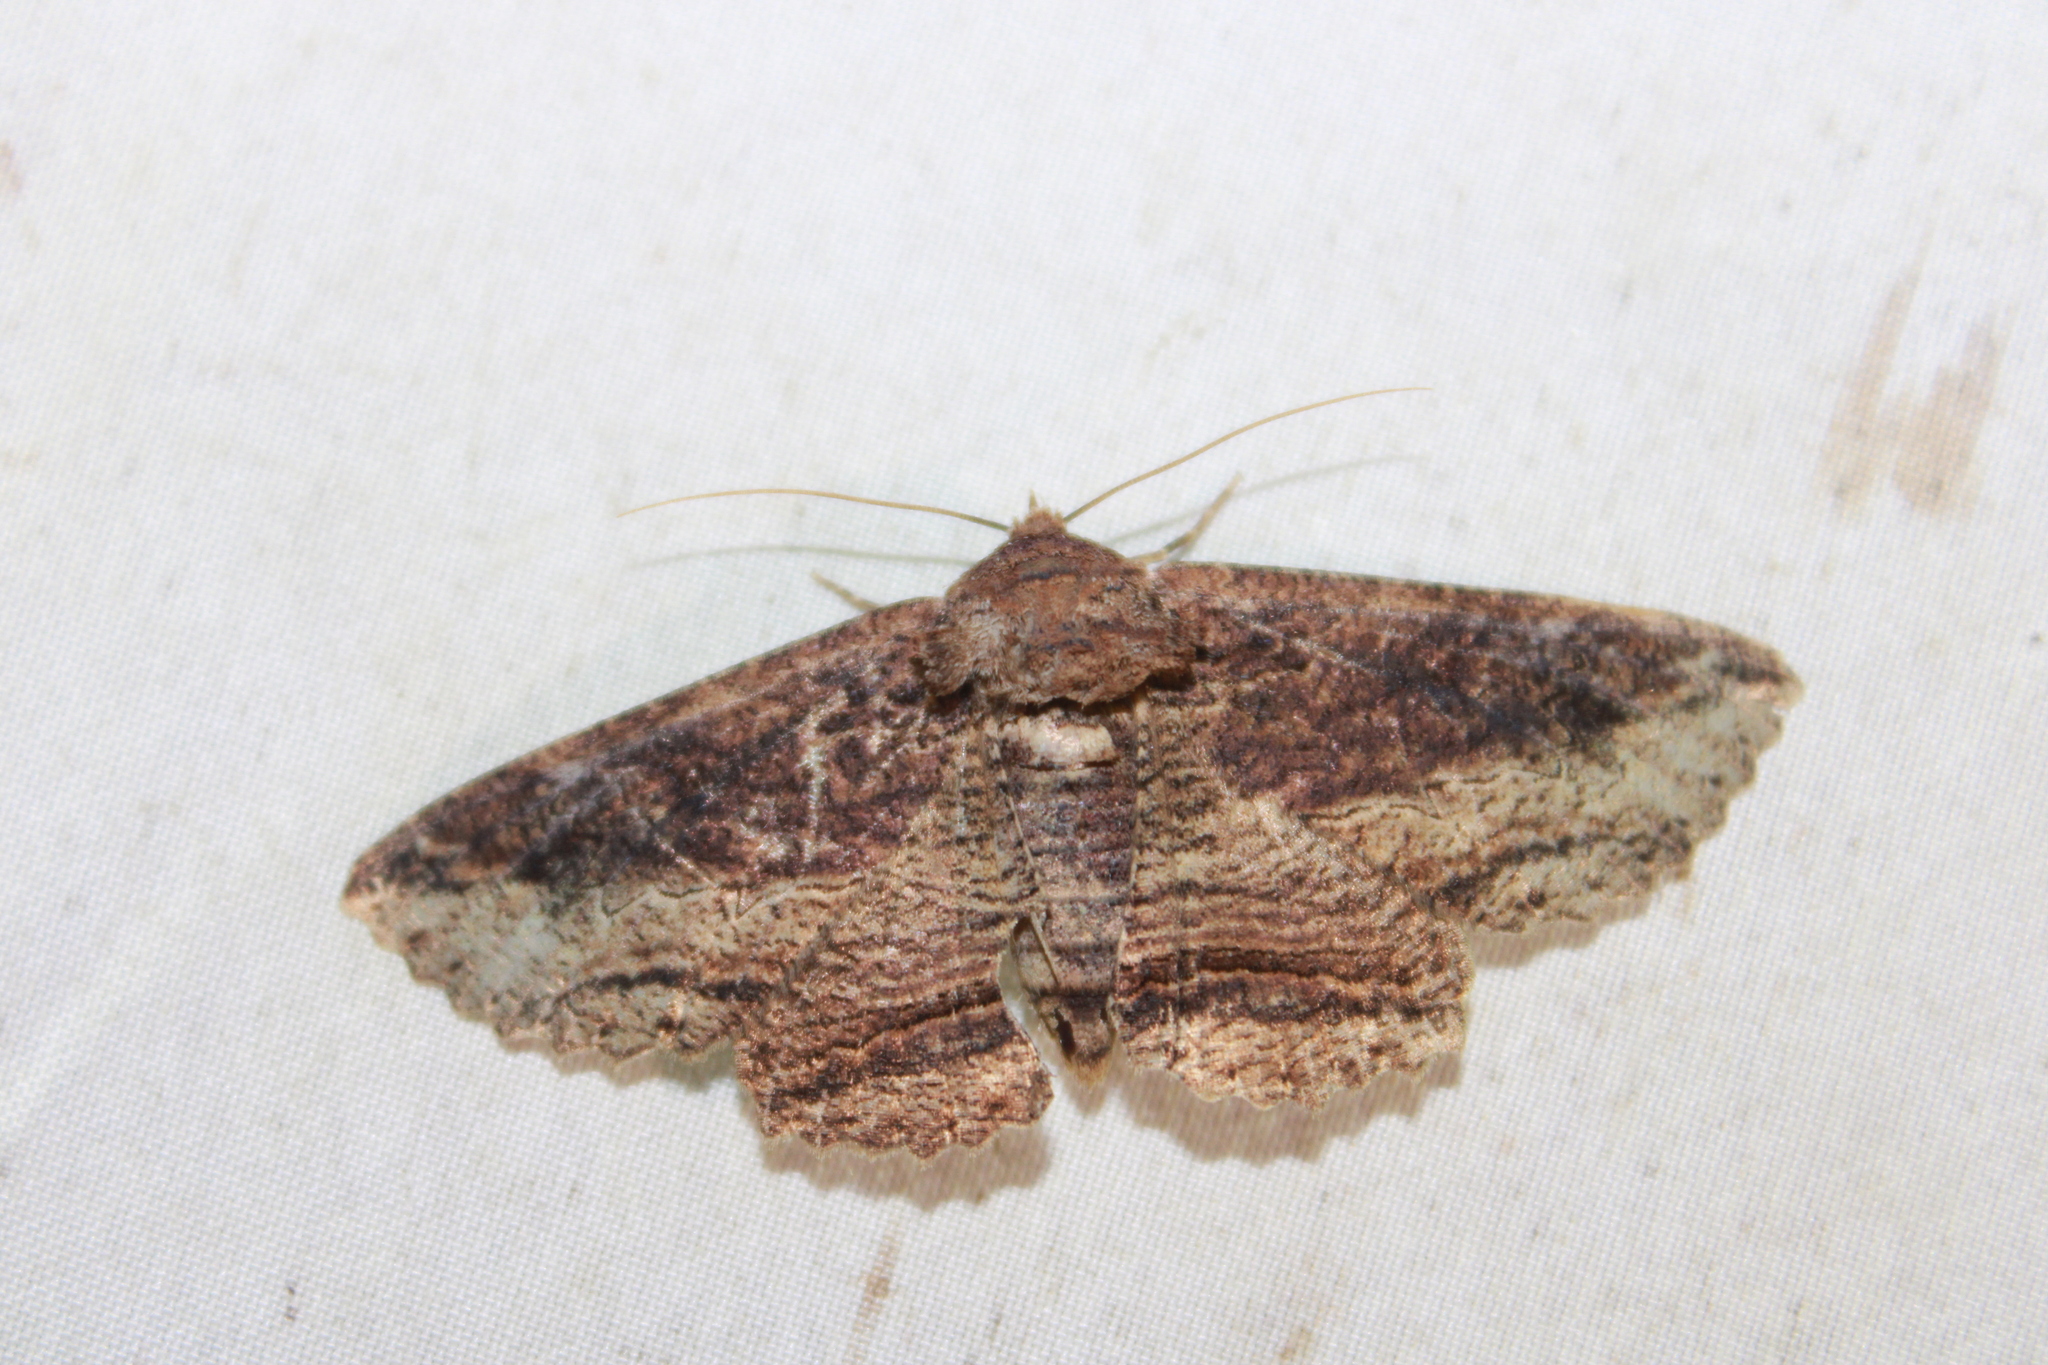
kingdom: Animalia
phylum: Arthropoda
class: Insecta
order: Lepidoptera
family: Erebidae
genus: Zale
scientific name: Zale lafontainei
